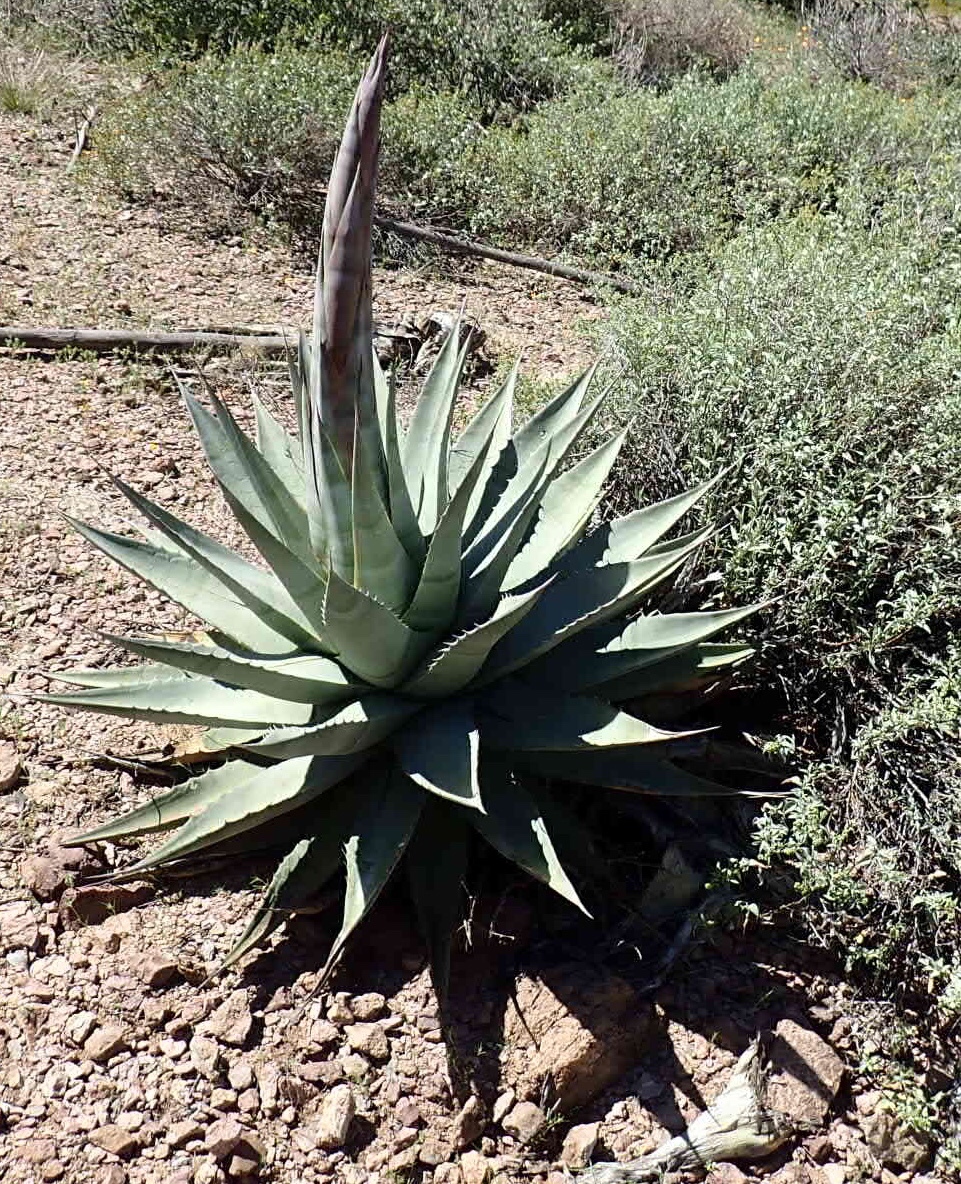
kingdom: Plantae
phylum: Tracheophyta
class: Liliopsida
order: Asparagales
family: Asparagaceae
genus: Agave
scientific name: Agave simplex
